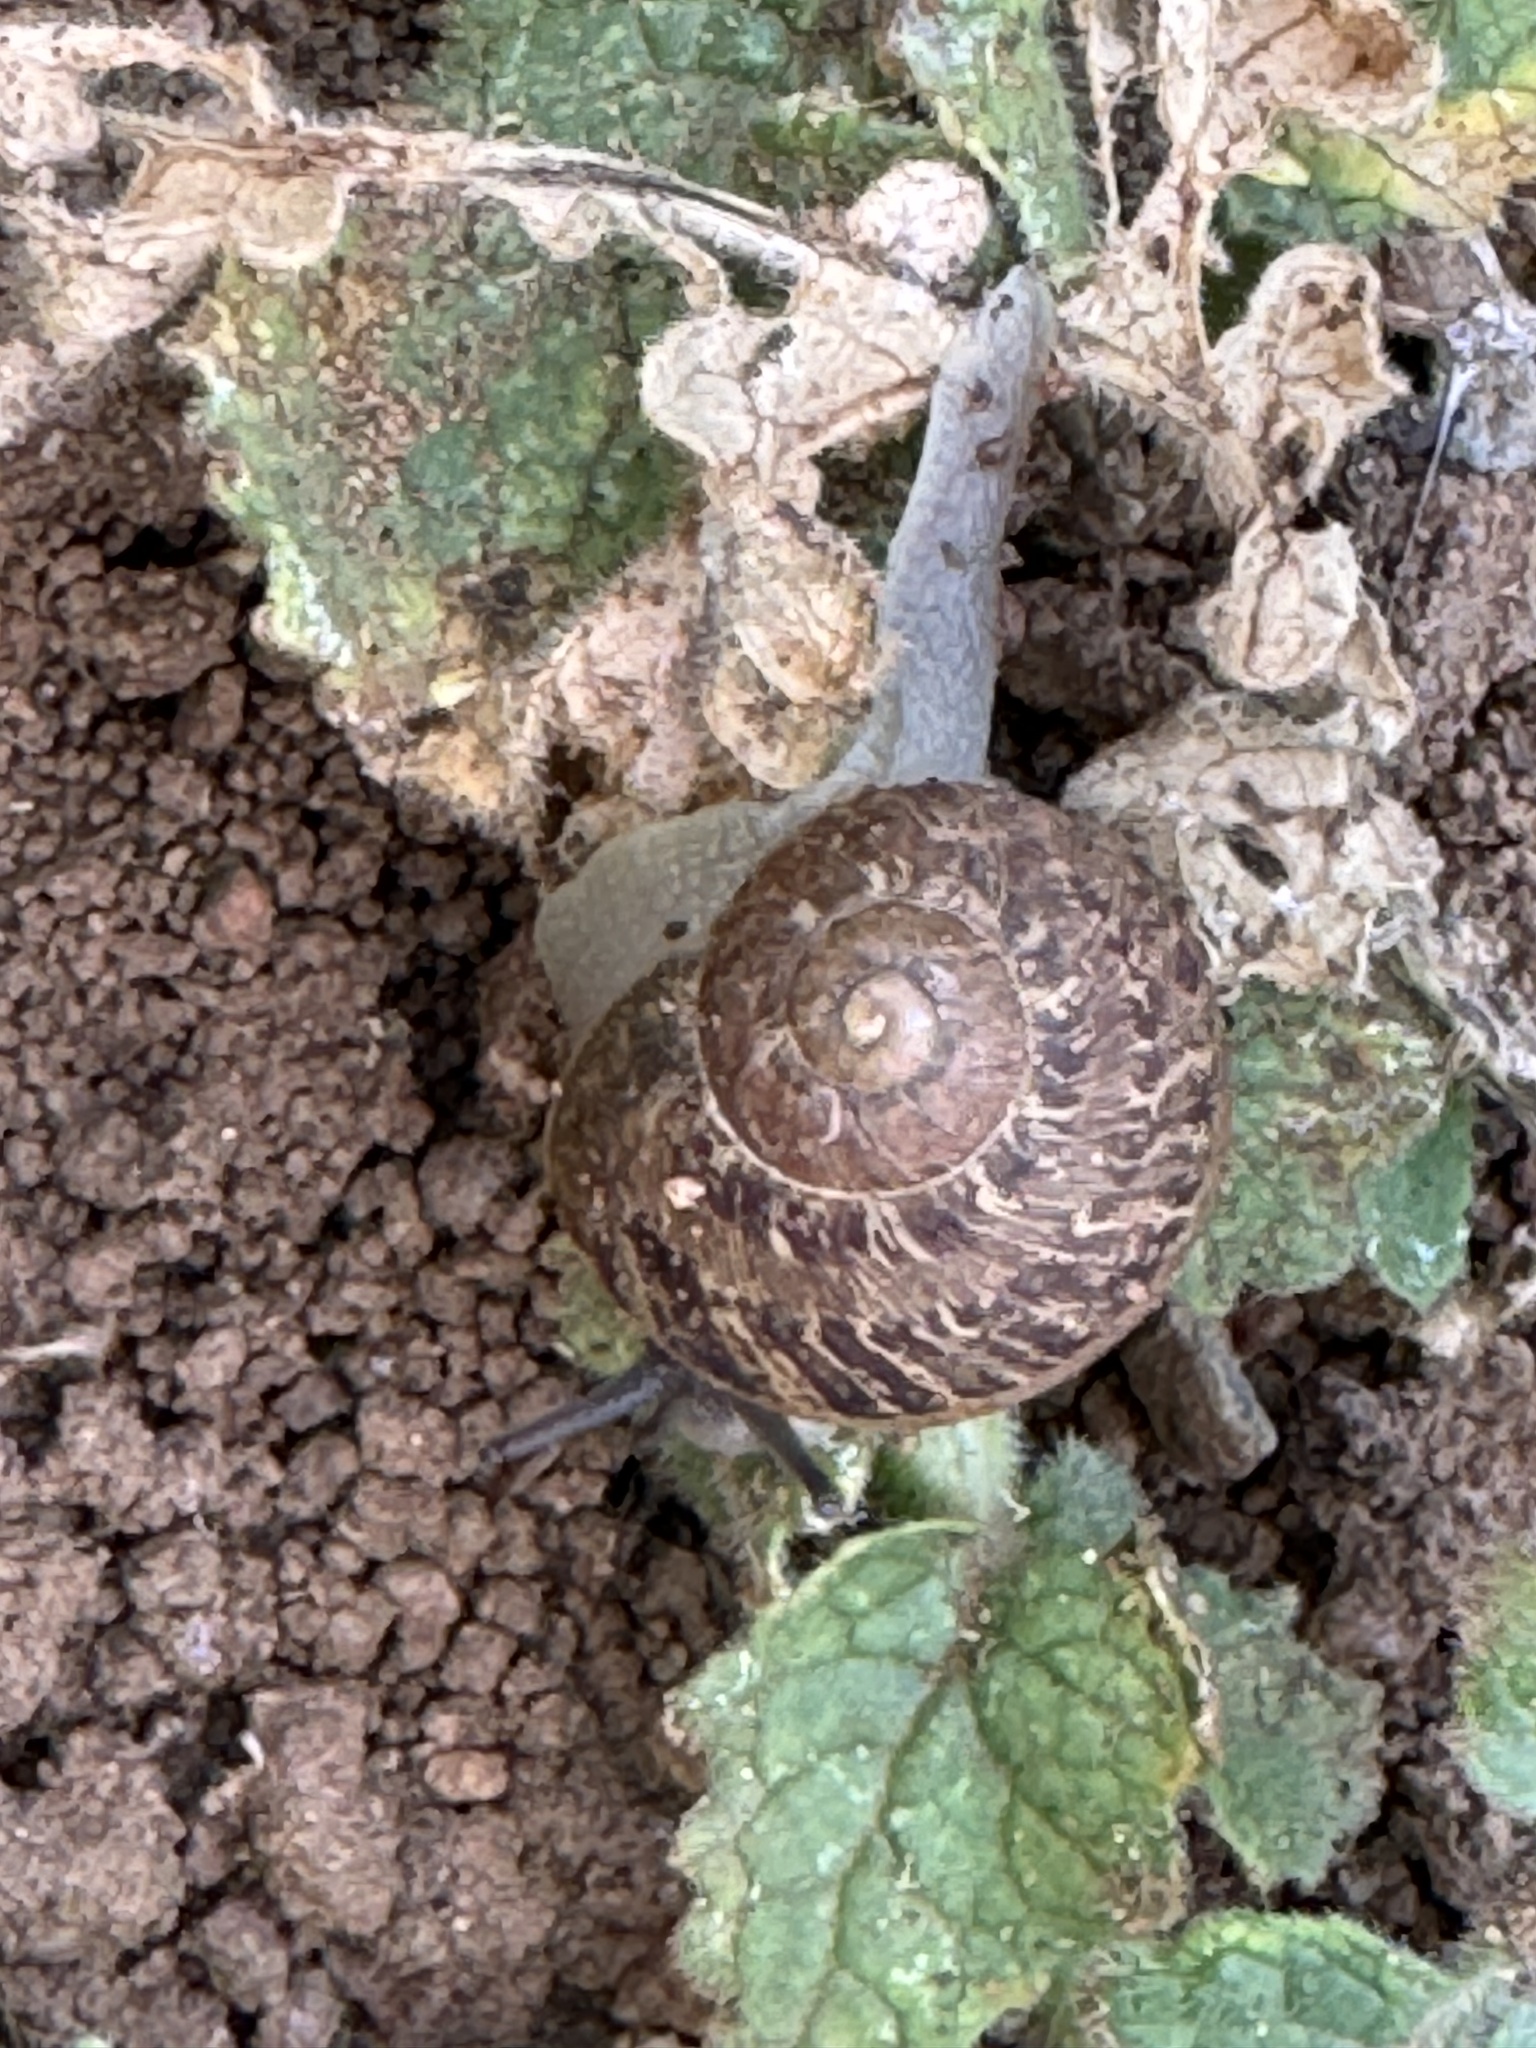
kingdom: Animalia
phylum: Mollusca
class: Gastropoda
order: Stylommatophora
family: Xanthonychidae
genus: Xerarionta
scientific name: Xerarionta stearnsiana
